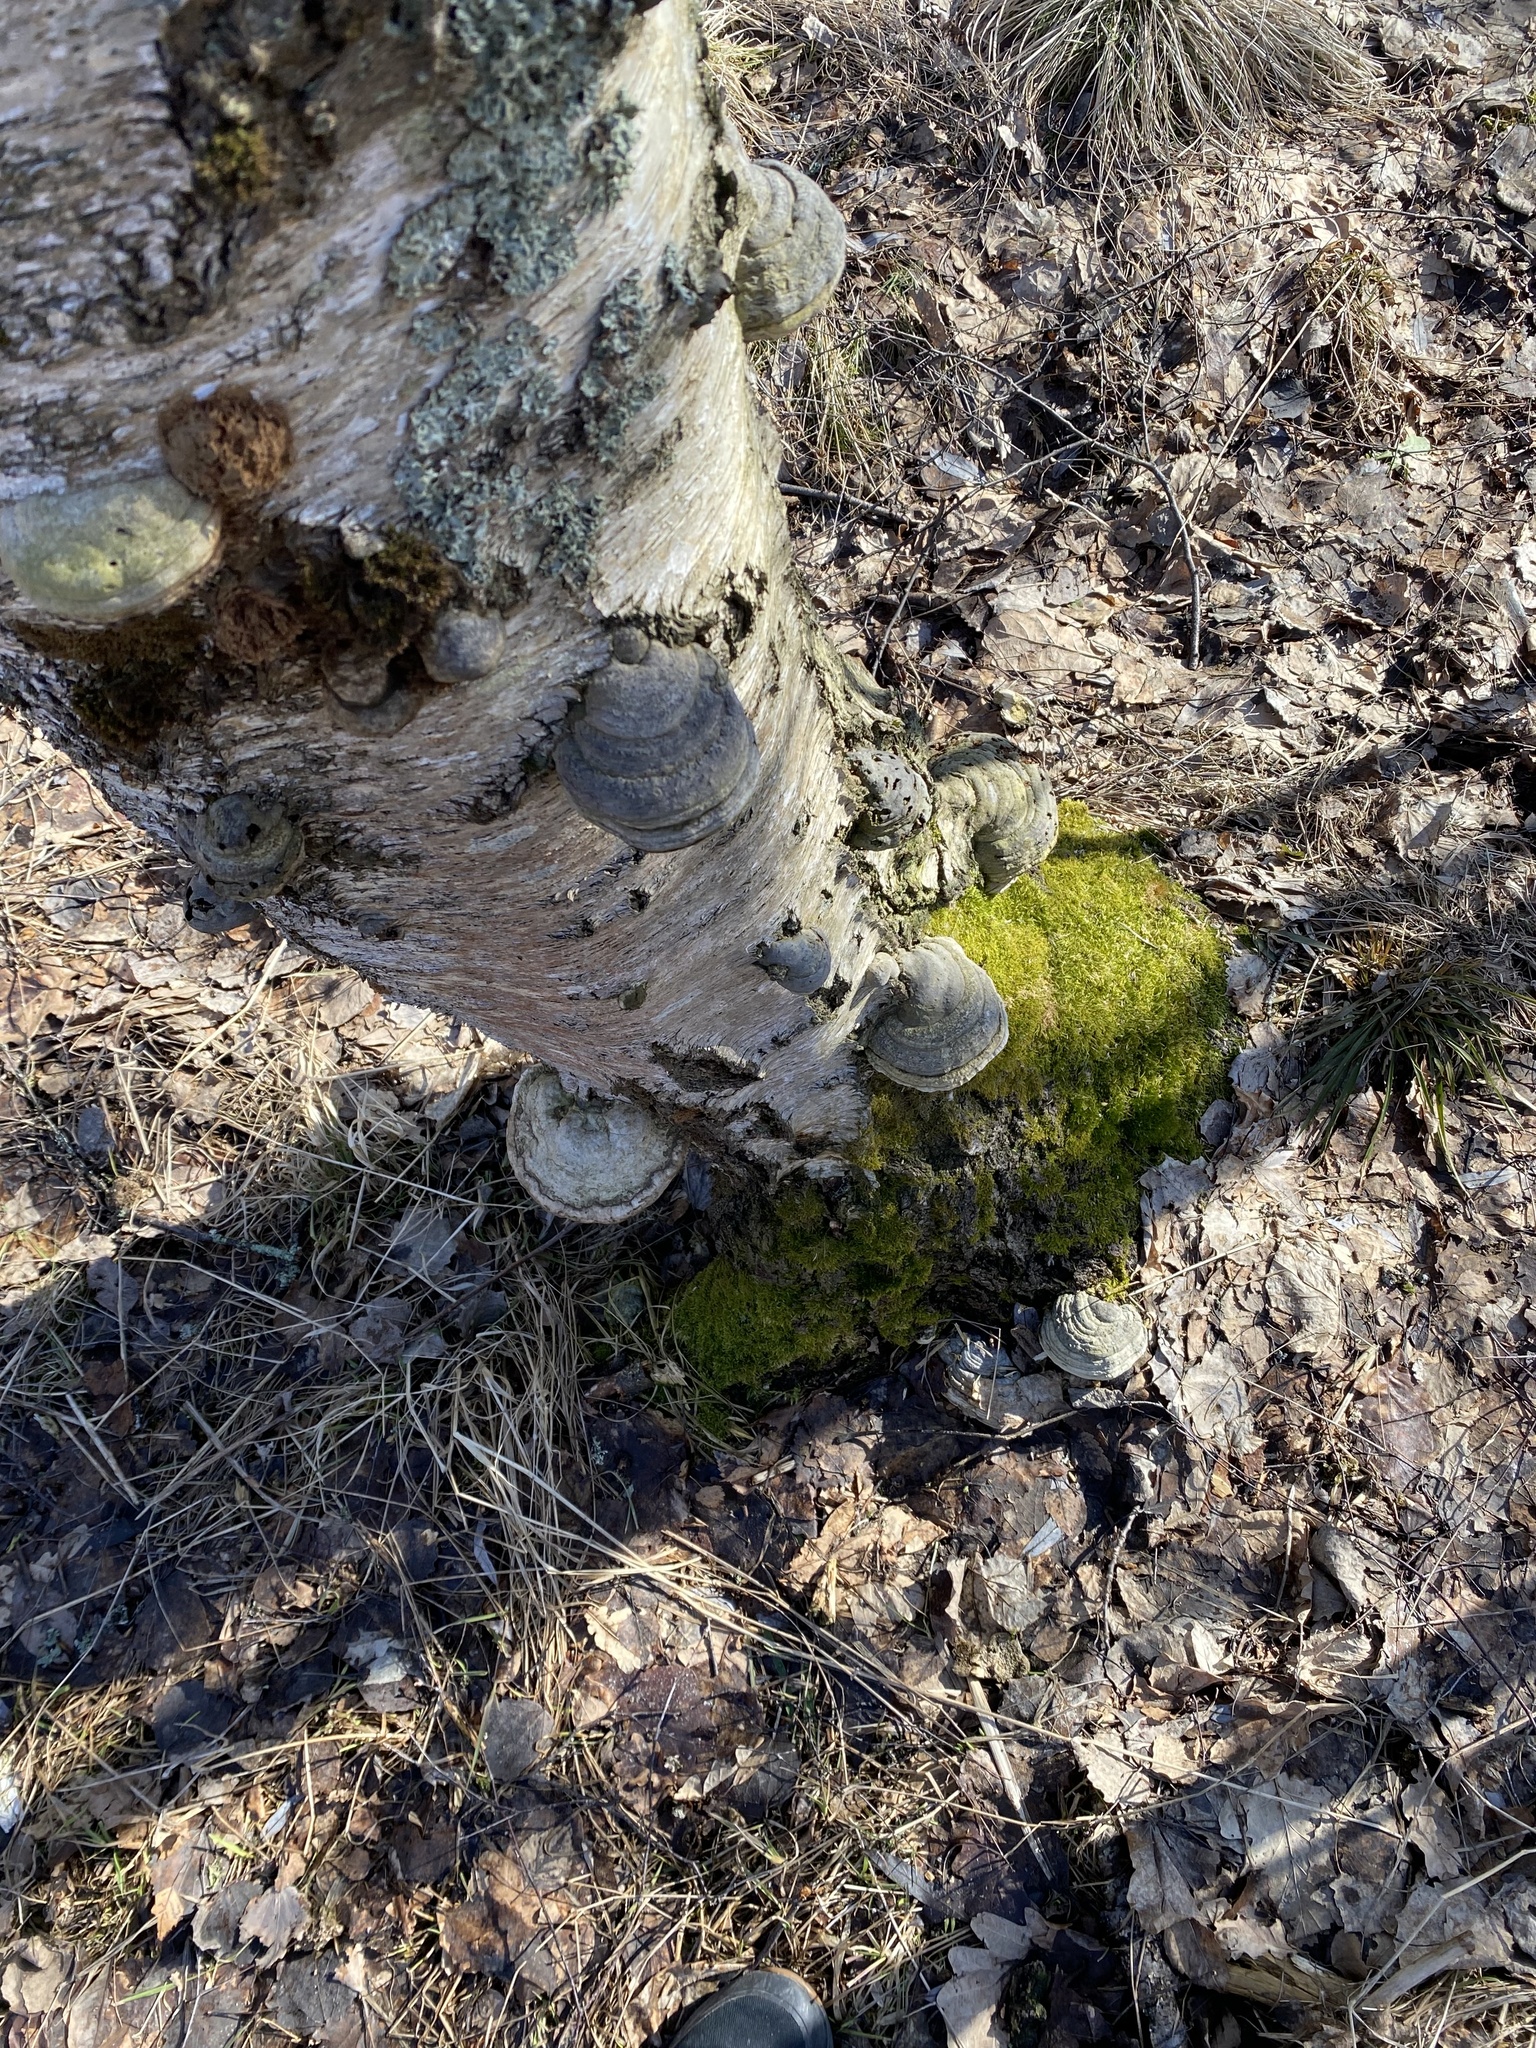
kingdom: Fungi
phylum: Basidiomycota
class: Agaricomycetes
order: Polyporales
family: Polyporaceae
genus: Fomes
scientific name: Fomes fomentarius
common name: Hoof fungus
